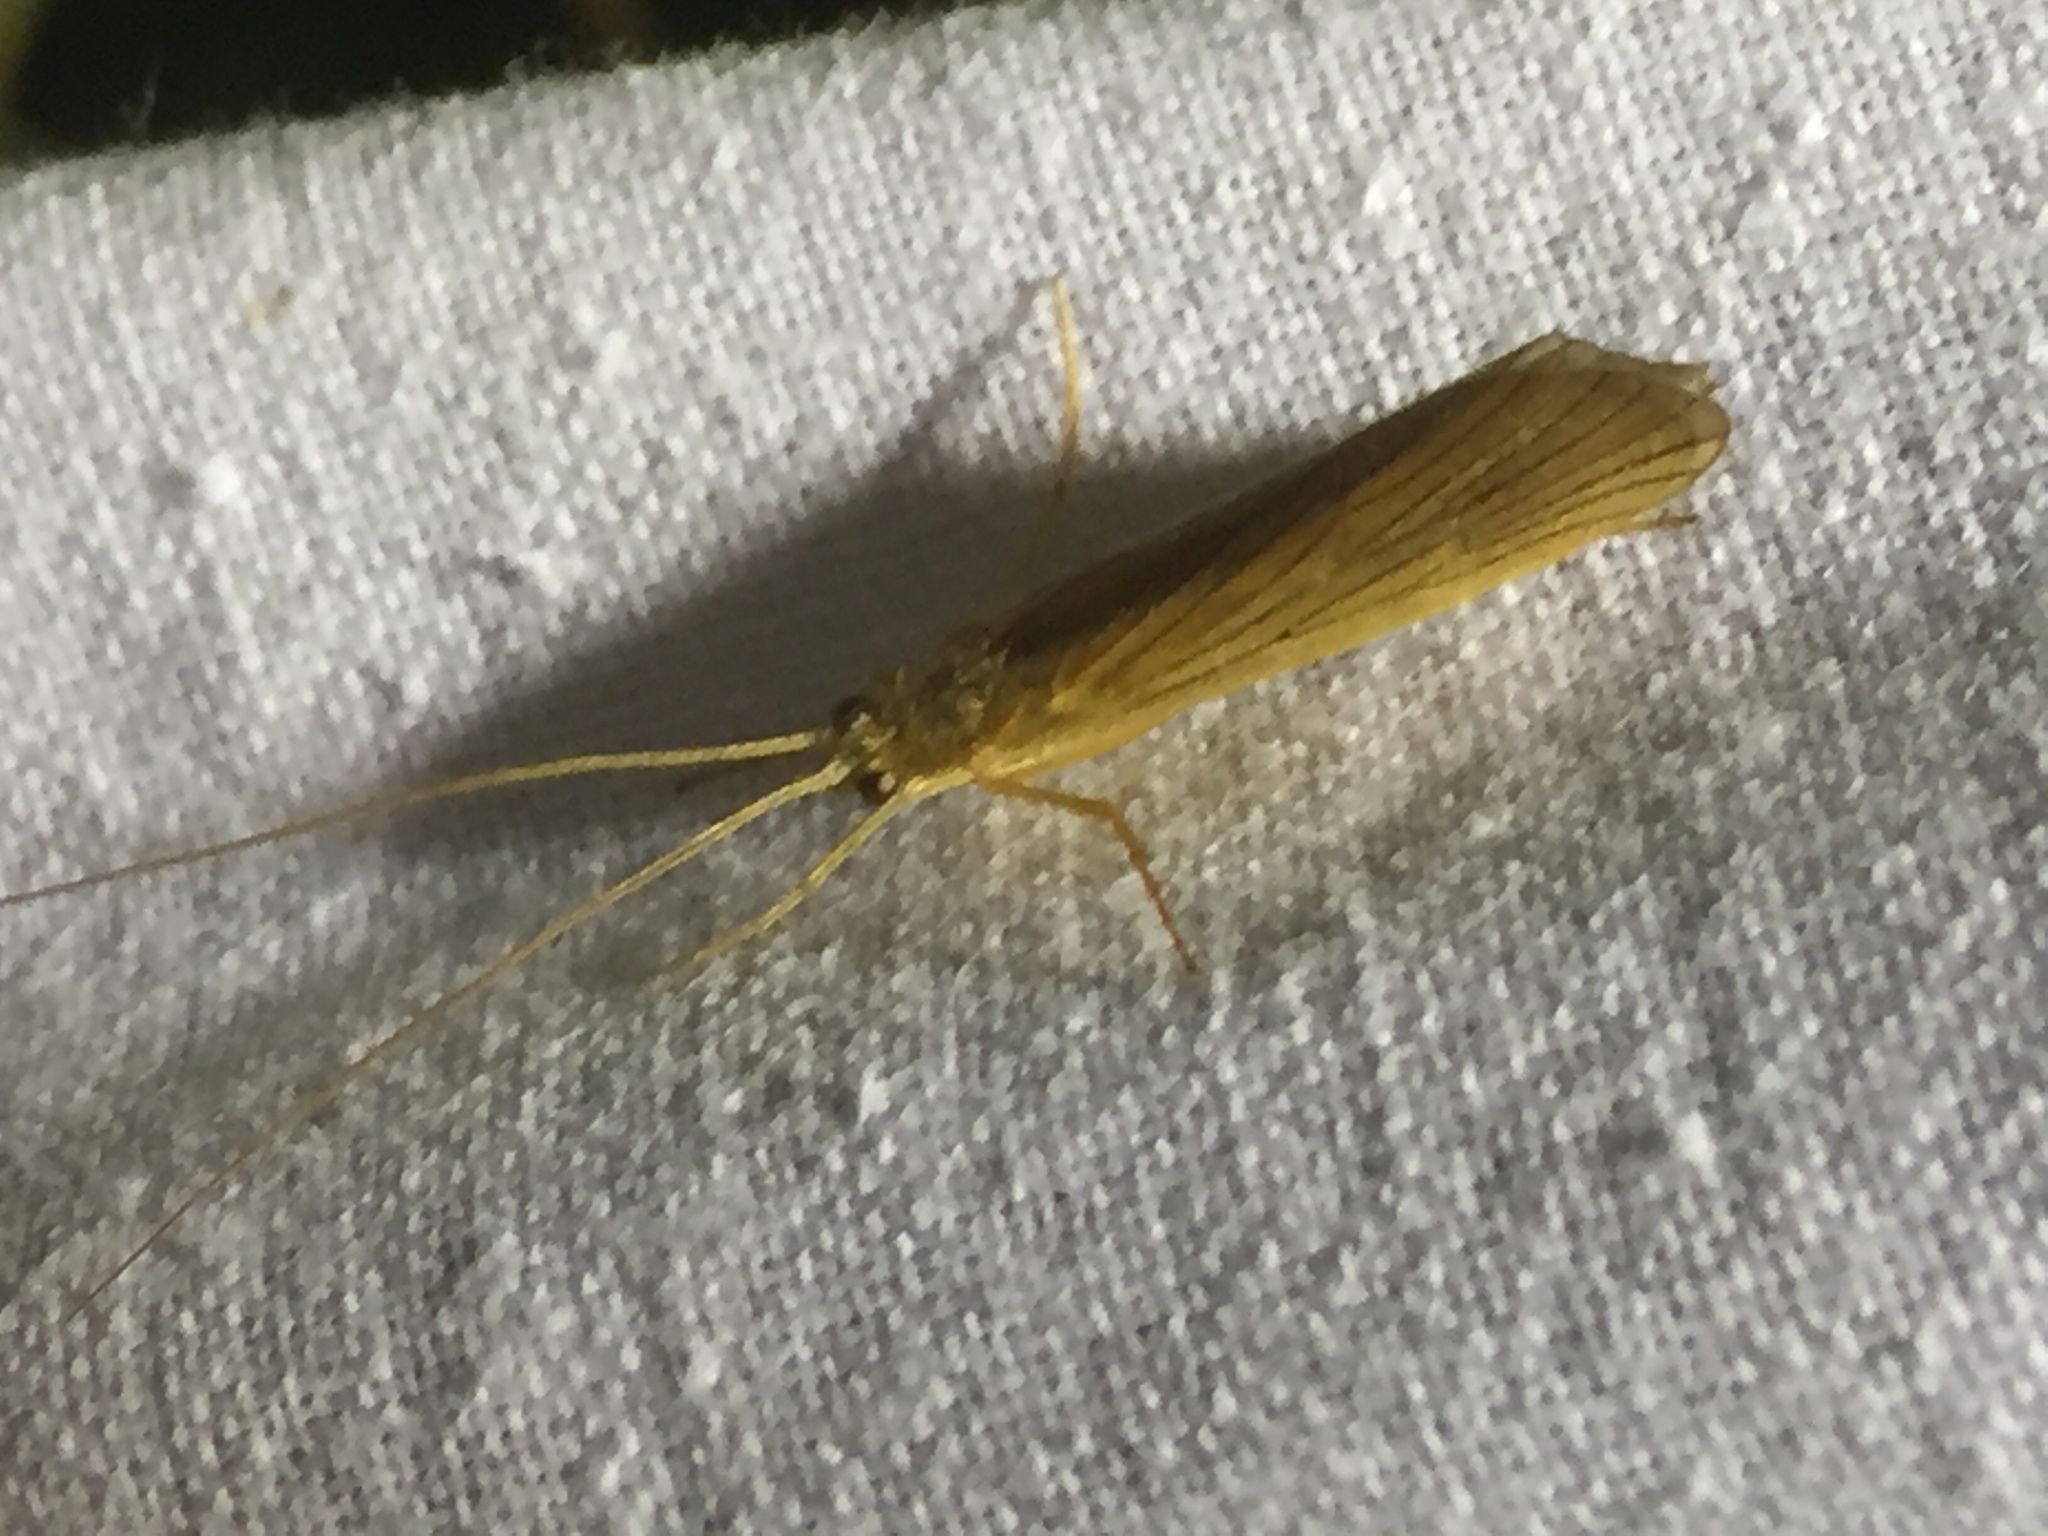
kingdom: Animalia
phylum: Arthropoda
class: Insecta
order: Trichoptera
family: Phryganeidae
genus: Agrypnia
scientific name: Agrypnia pagetana
